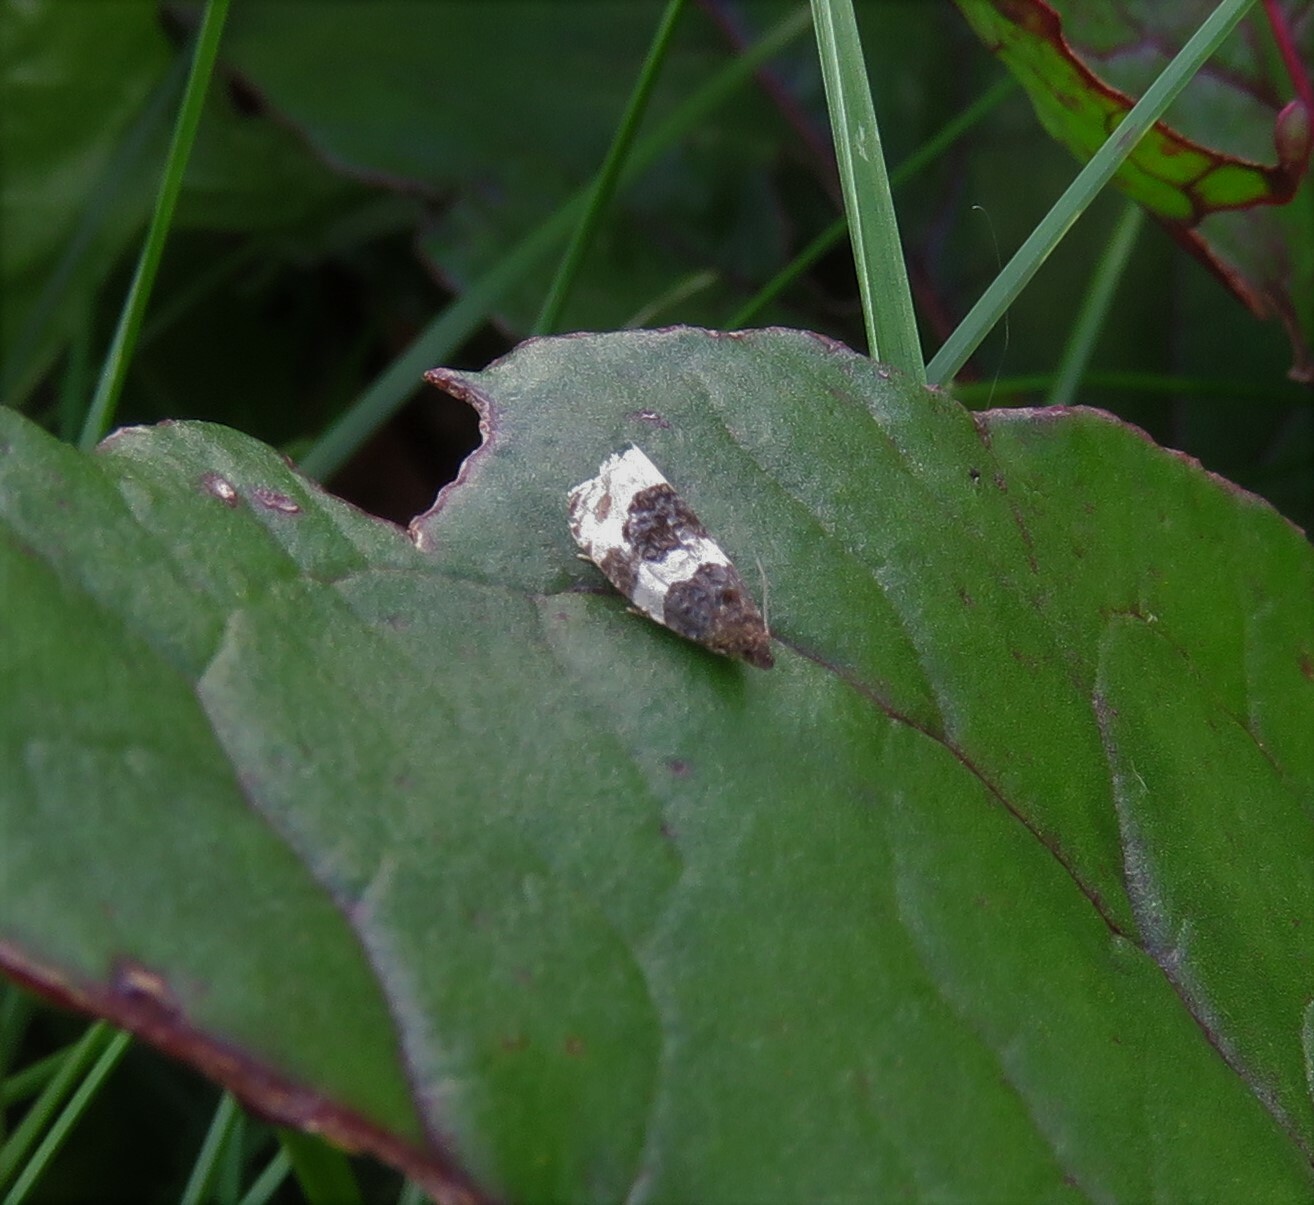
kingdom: Animalia
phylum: Arthropoda
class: Insecta
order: Lepidoptera
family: Tortricidae
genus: Olethreutes
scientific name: Olethreutes bipartitana
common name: Divided olethreutes moth
